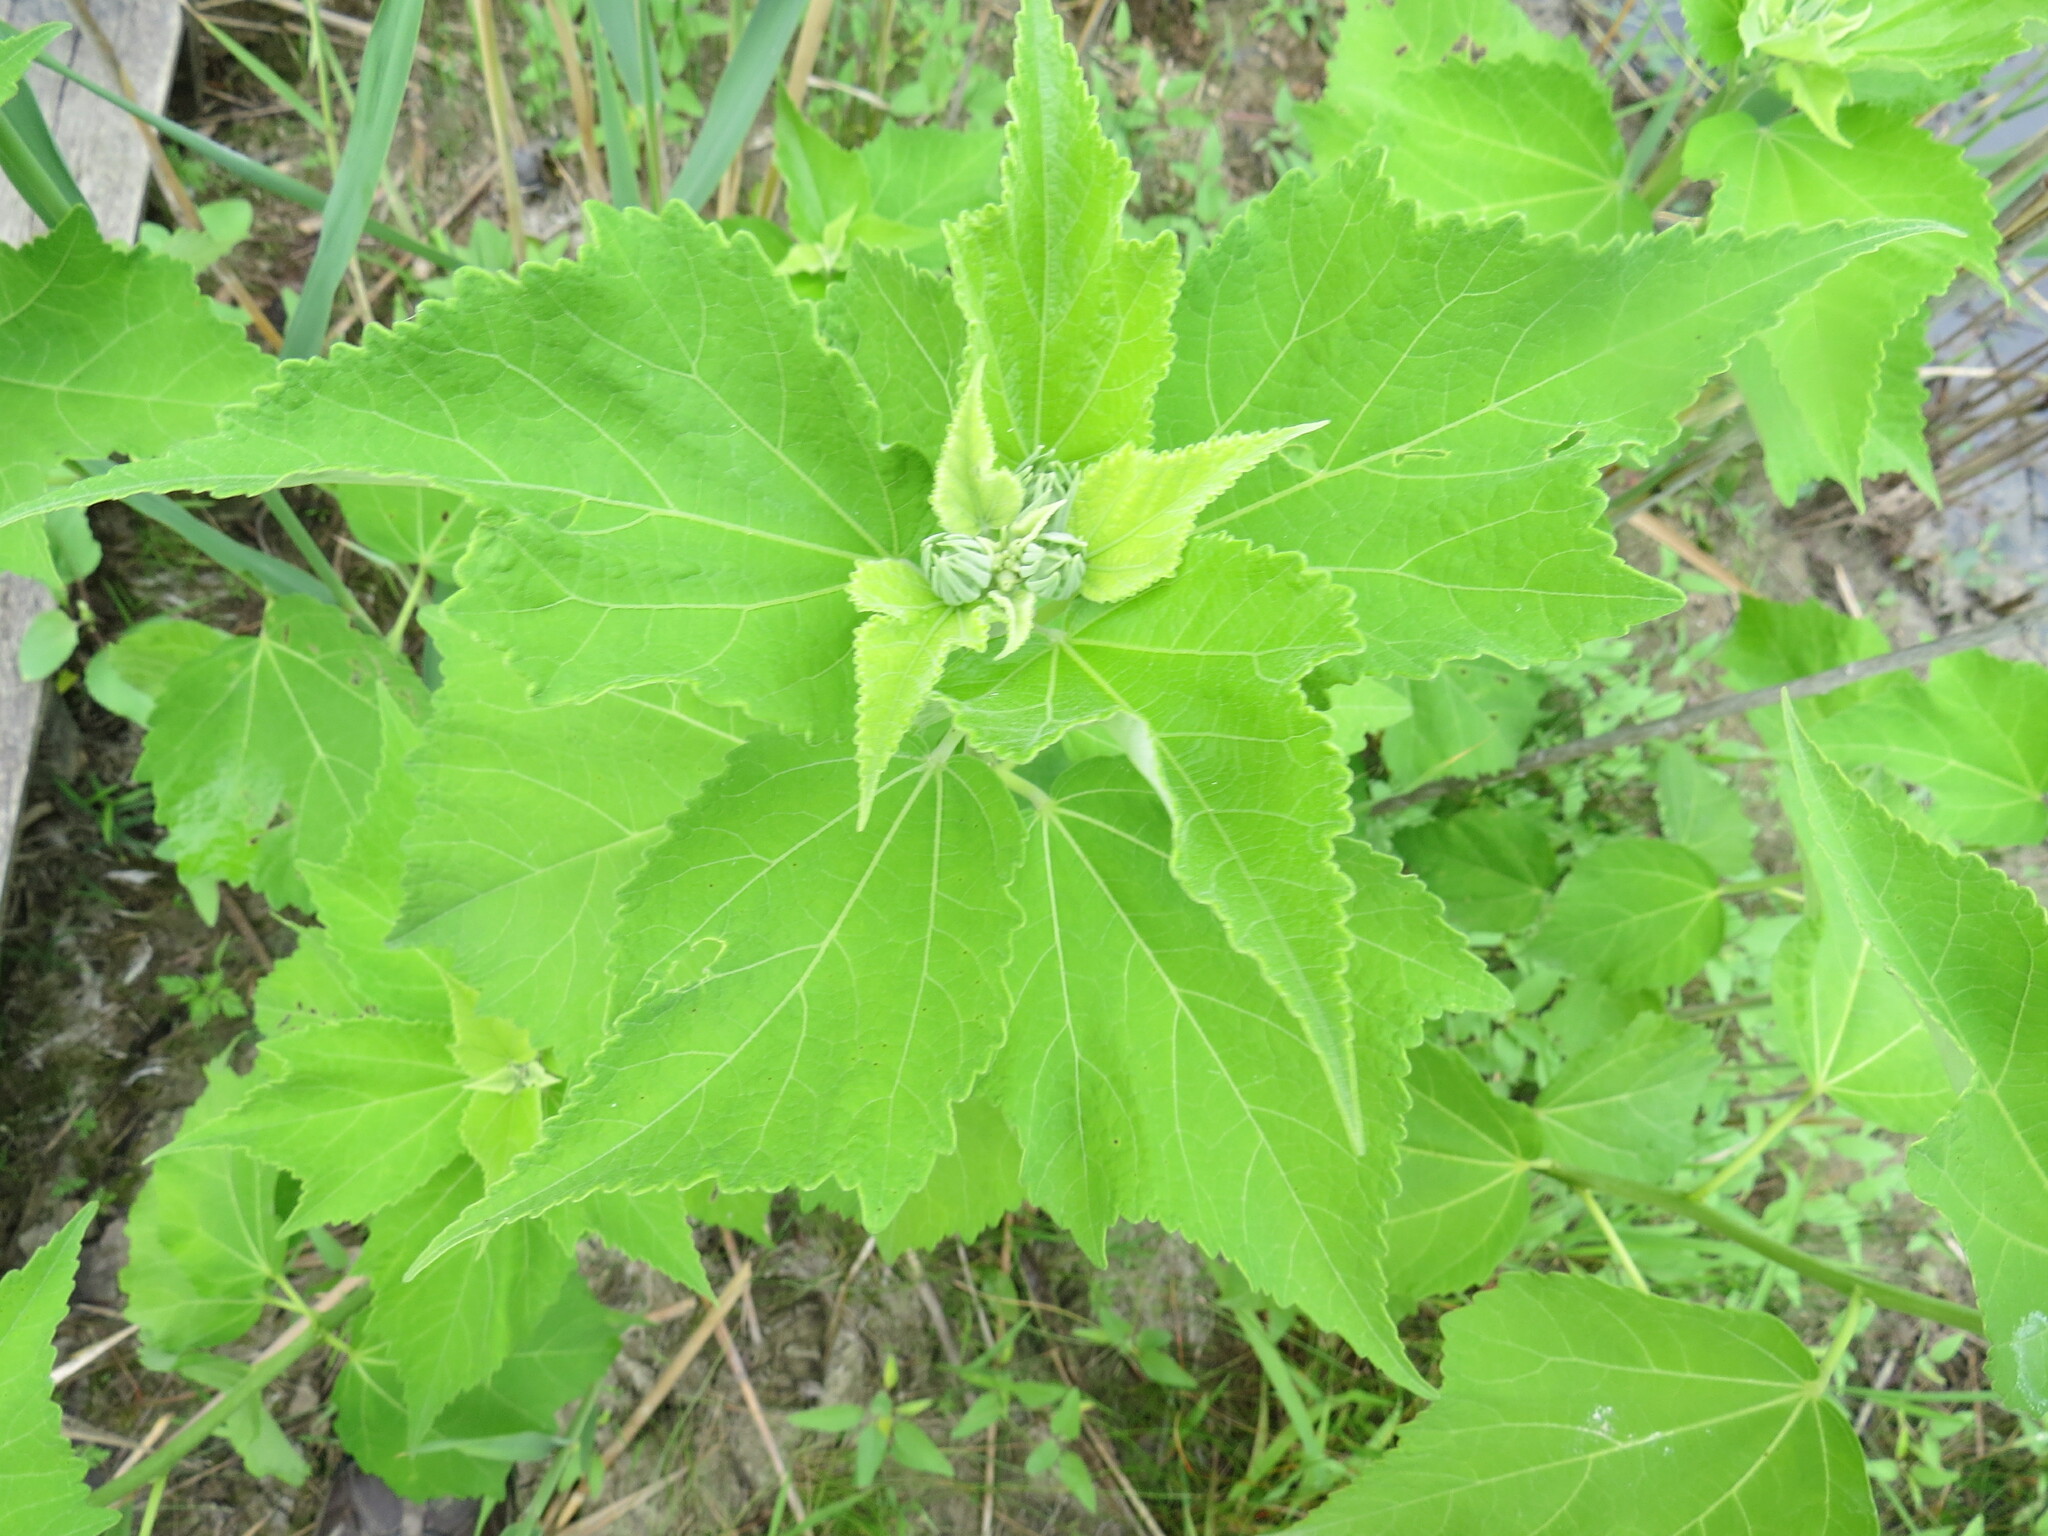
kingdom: Plantae
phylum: Tracheophyta
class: Magnoliopsida
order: Malvales
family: Malvaceae
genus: Hibiscus
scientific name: Hibiscus moscheutos
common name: Common rose-mallow
